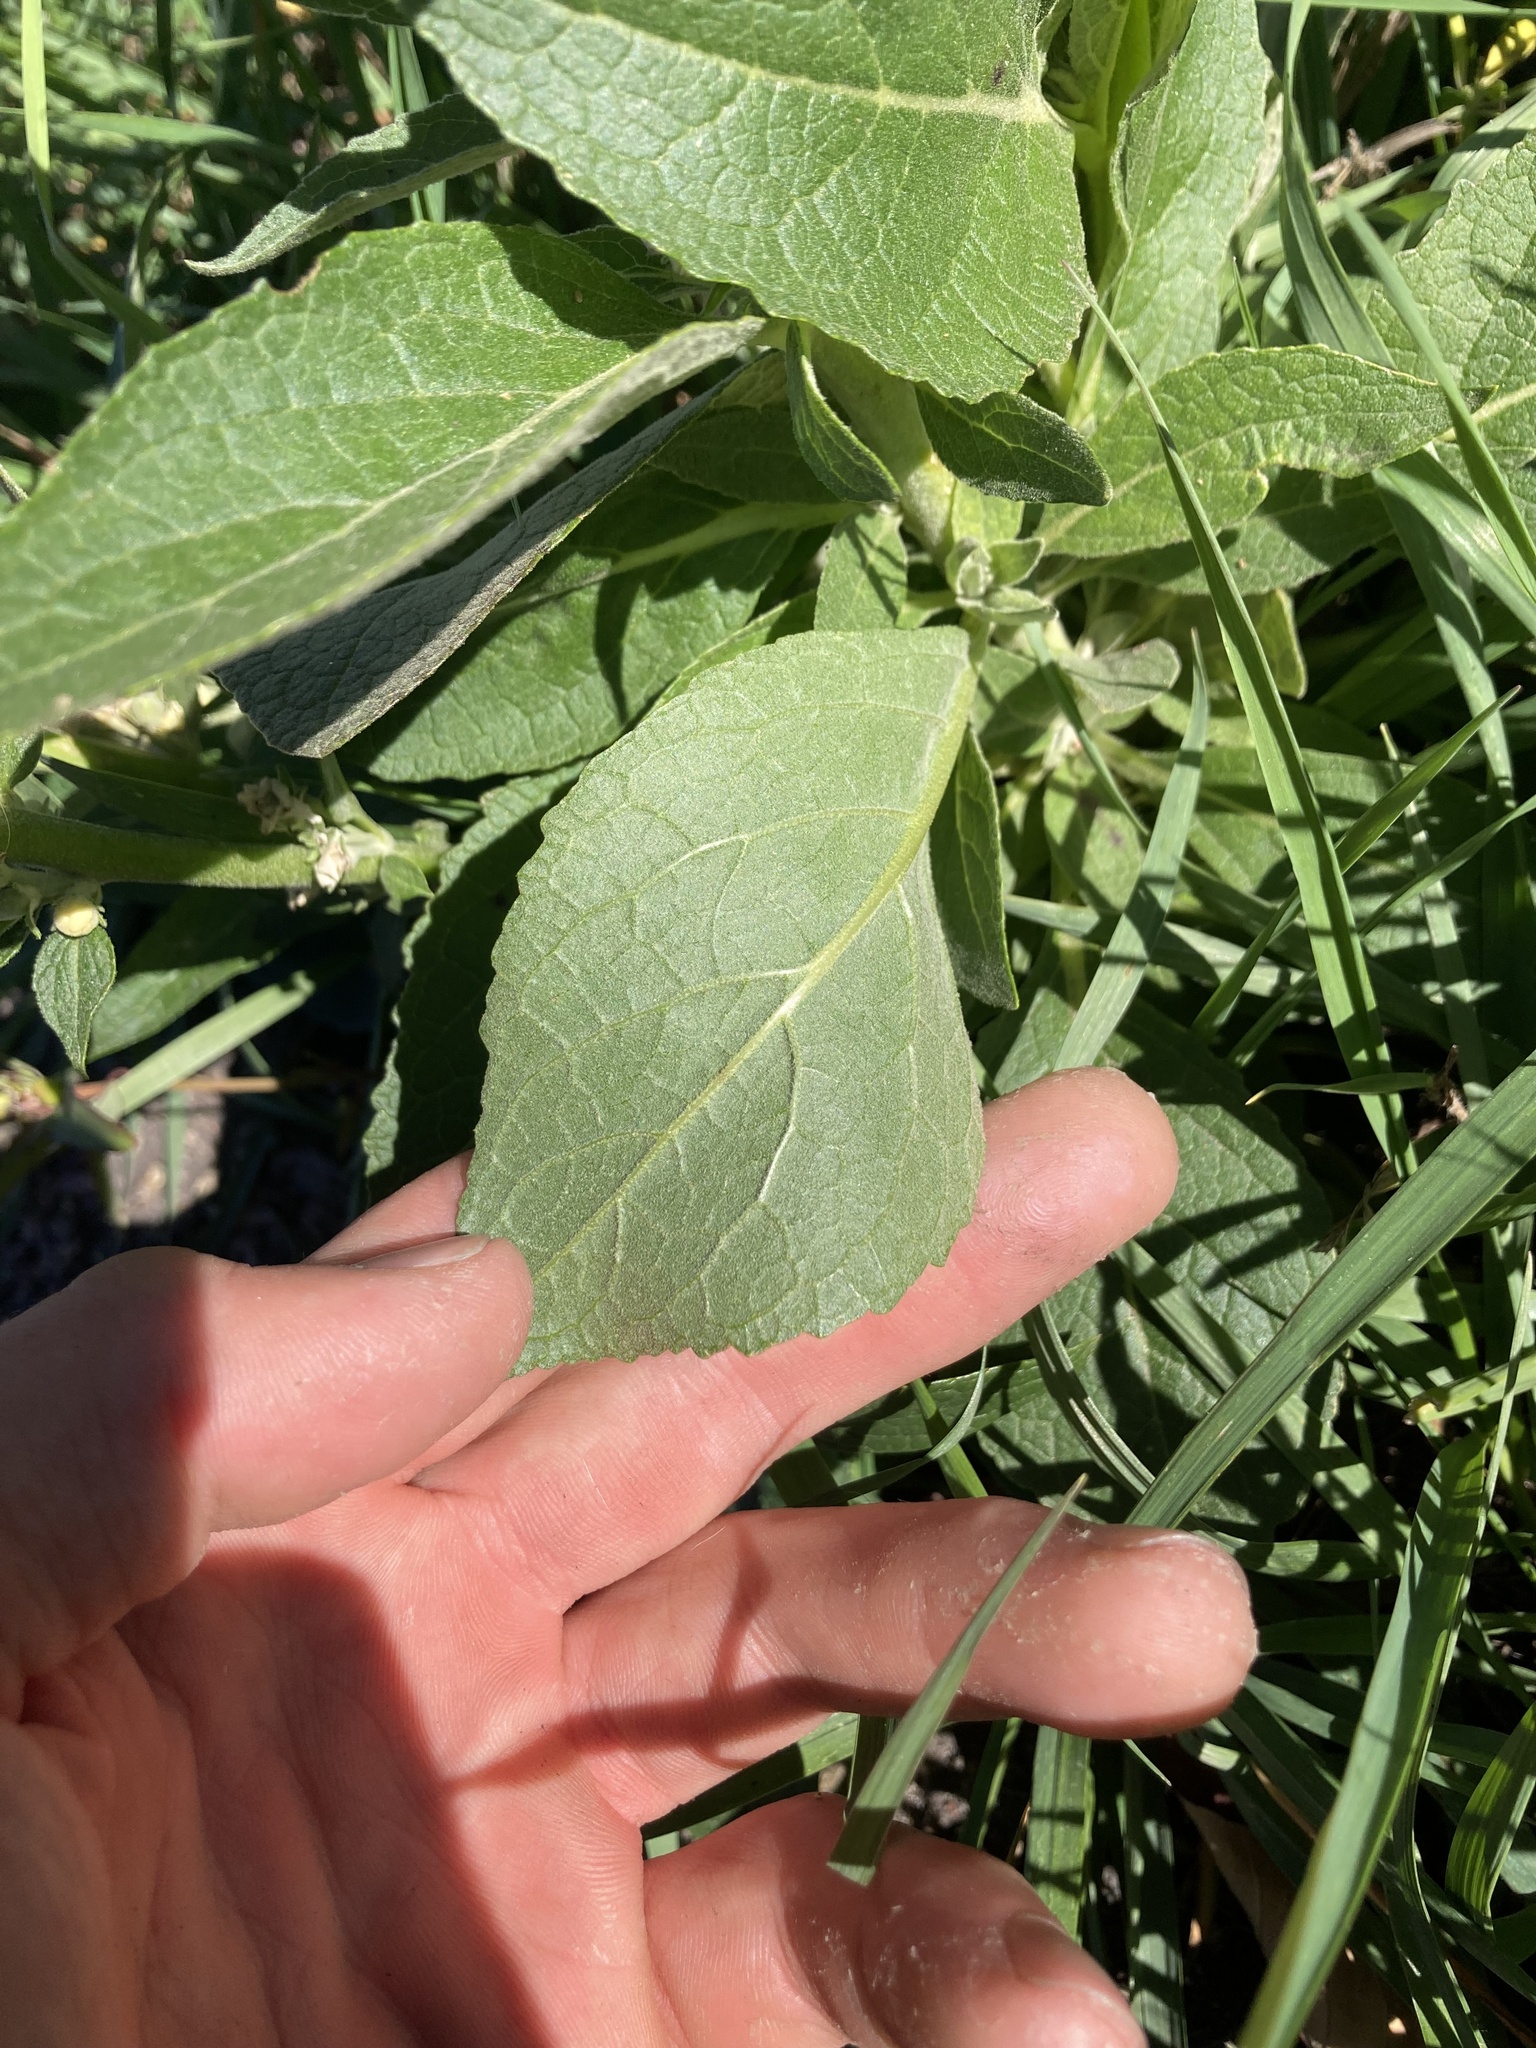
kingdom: Plantae
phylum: Tracheophyta
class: Magnoliopsida
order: Lamiales
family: Scrophulariaceae
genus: Verbascum
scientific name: Verbascum lychnitis
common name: White mullein
